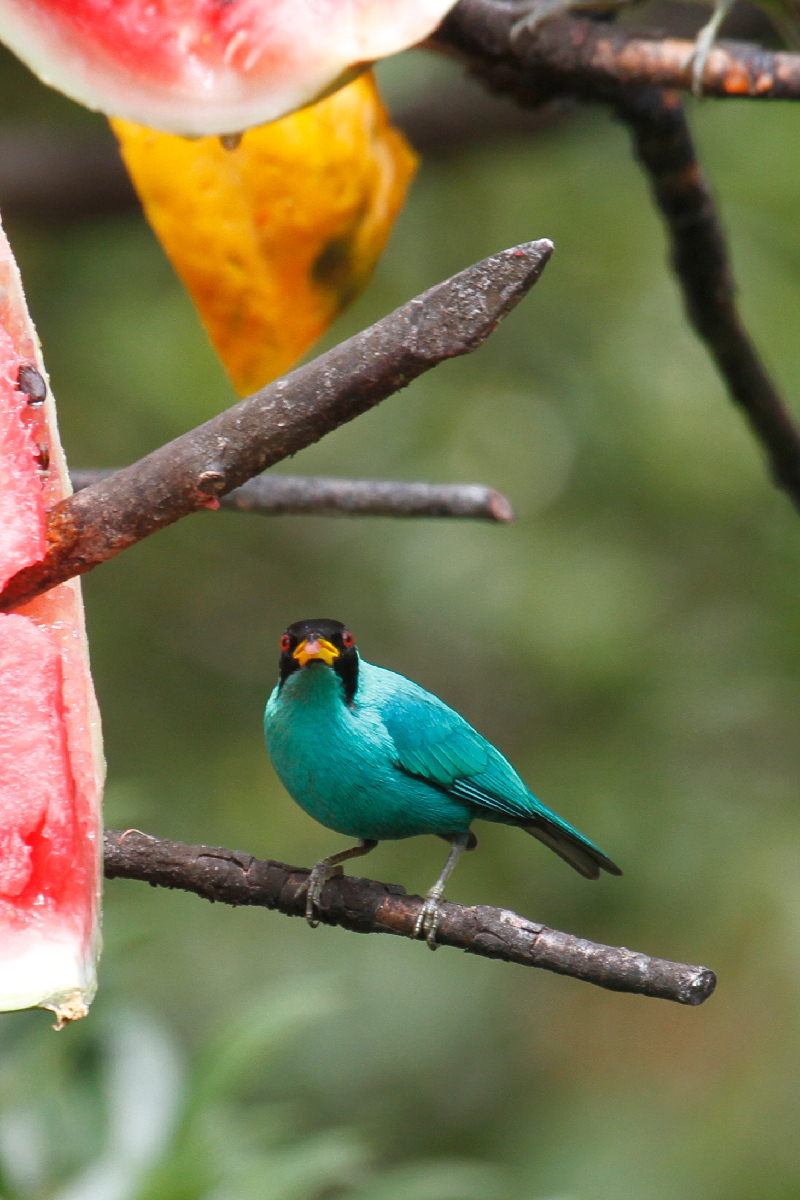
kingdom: Animalia
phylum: Chordata
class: Aves
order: Passeriformes
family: Thraupidae
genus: Chlorophanes
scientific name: Chlorophanes spiza
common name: Green honeycreeper
